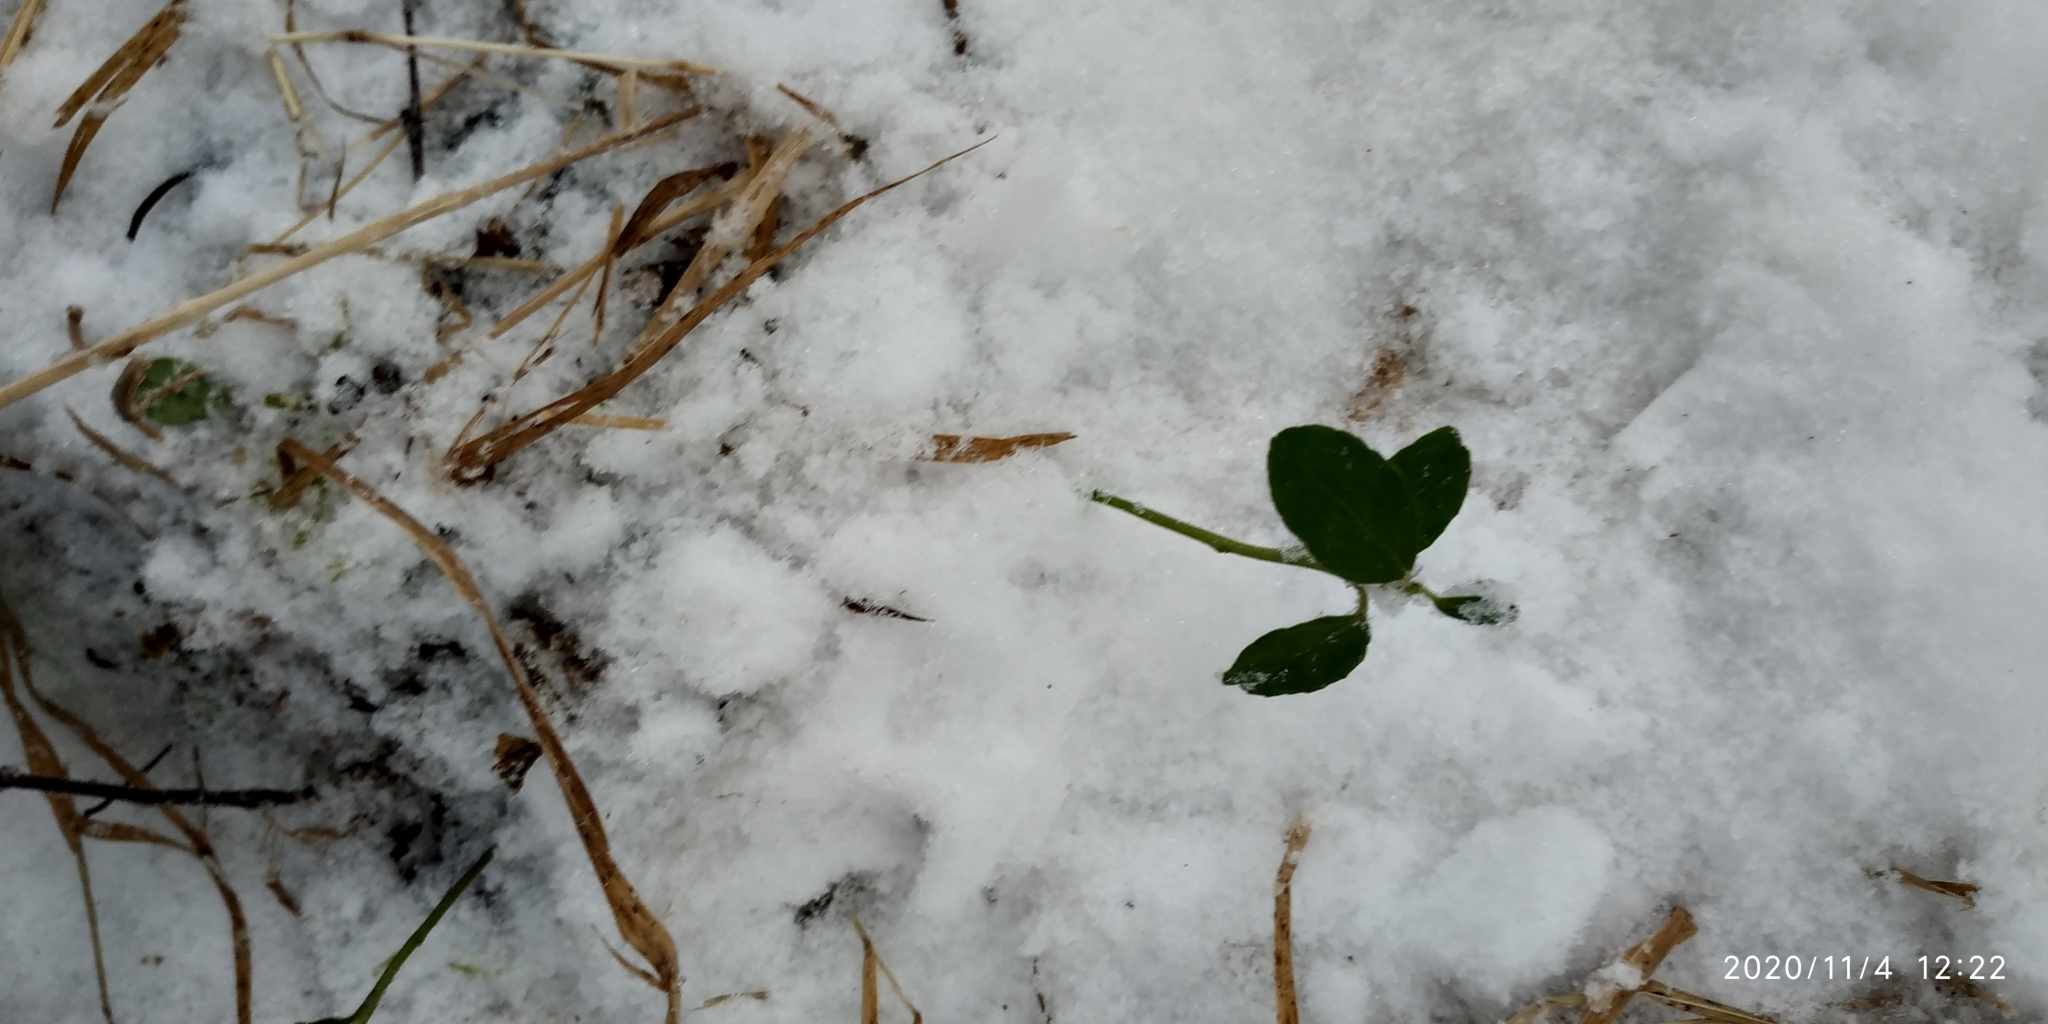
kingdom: Plantae
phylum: Tracheophyta
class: Magnoliopsida
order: Ericales
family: Ericaceae
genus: Vaccinium
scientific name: Vaccinium vitis-idaea
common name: Cowberry
